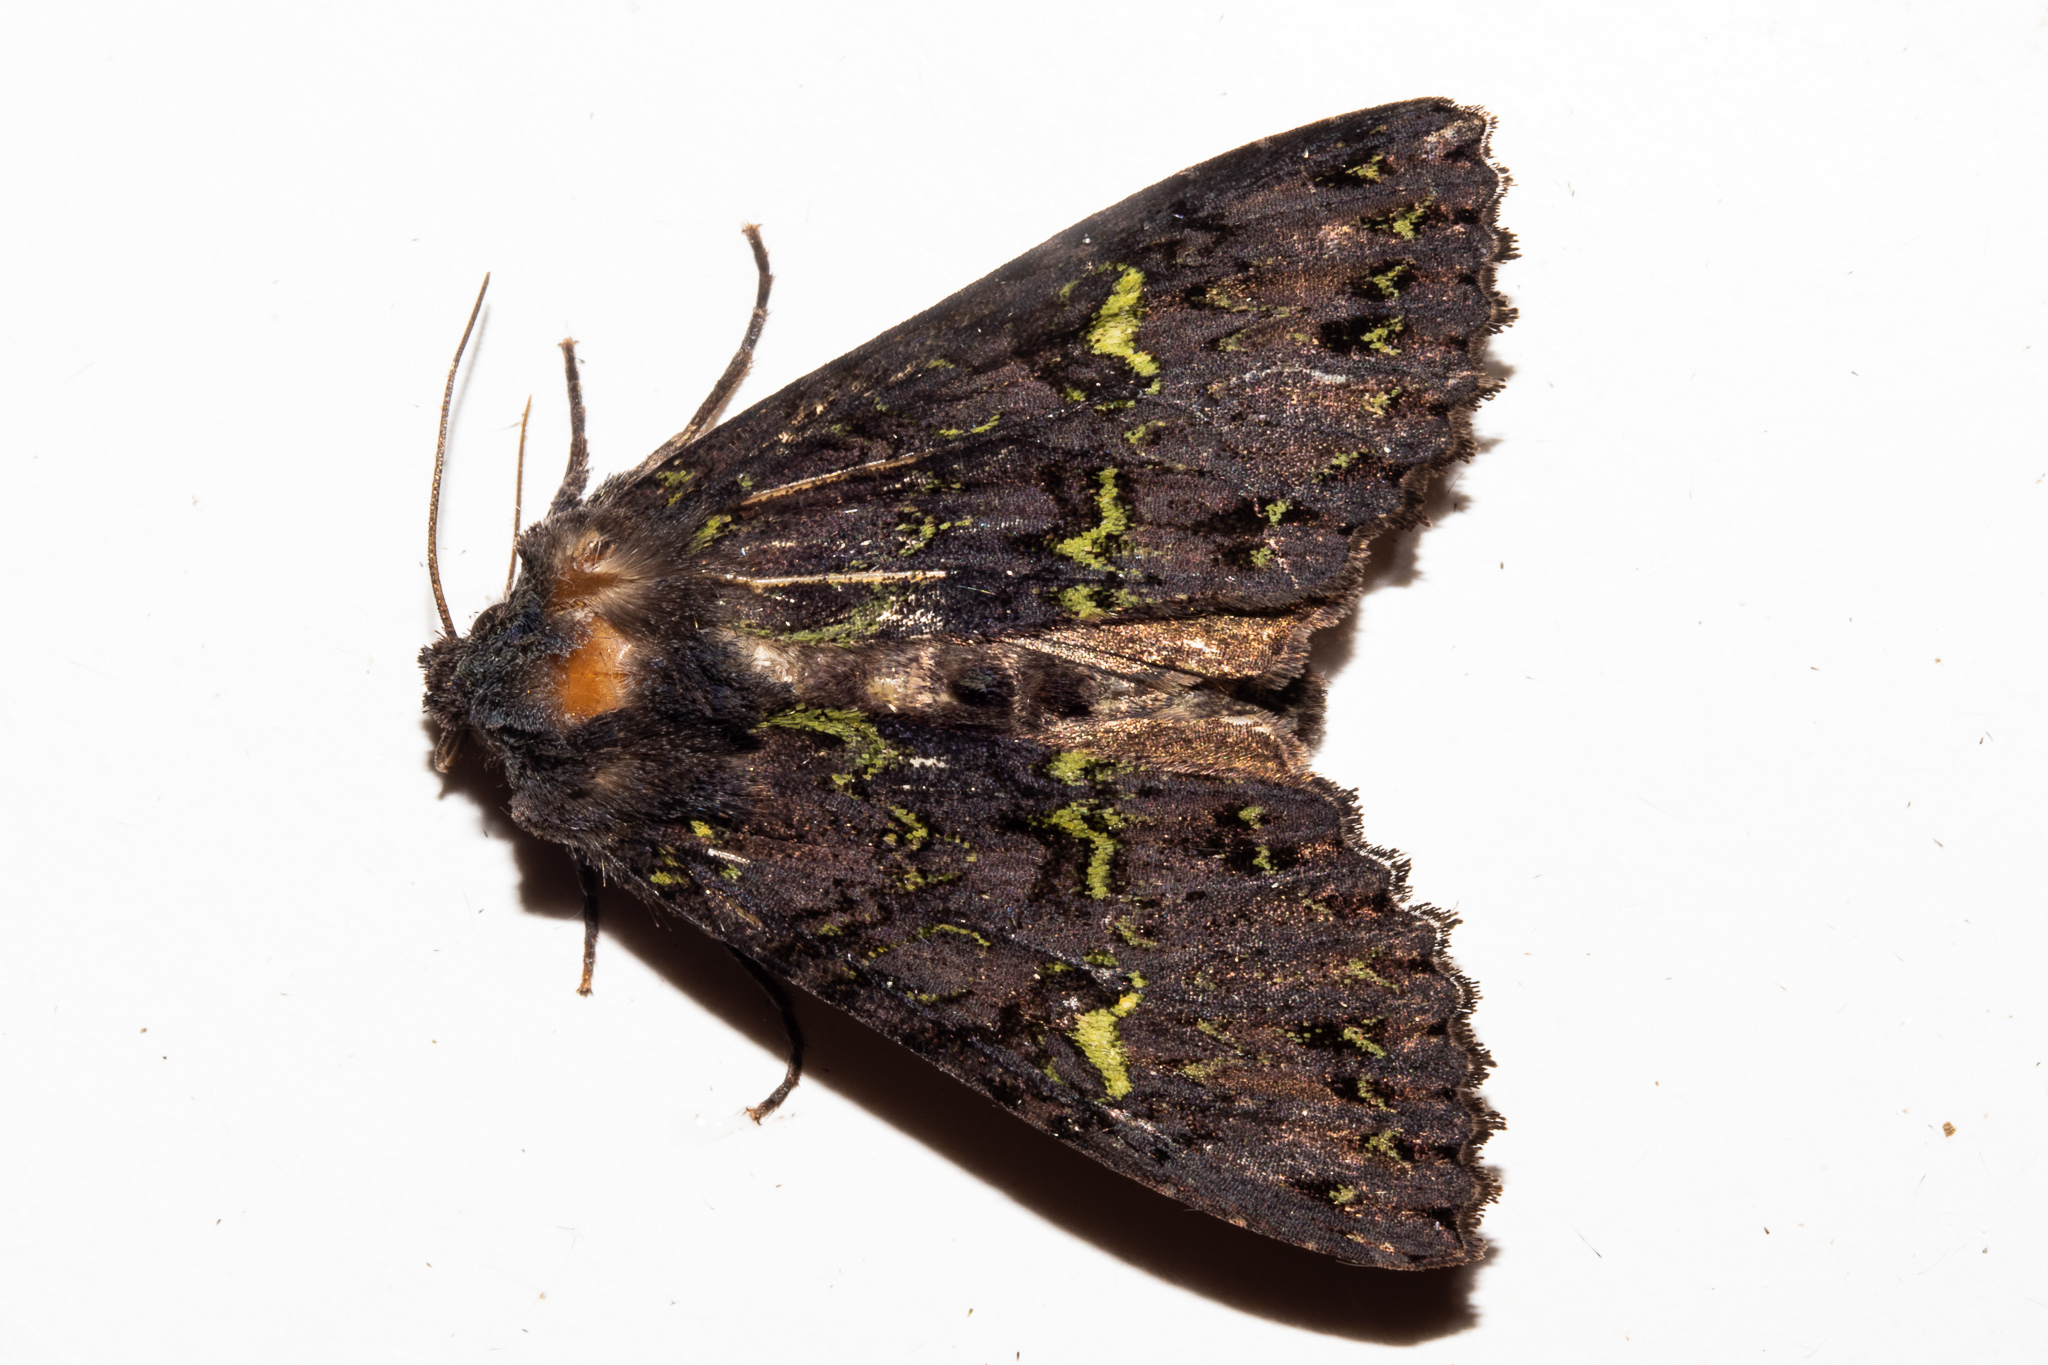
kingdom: Animalia
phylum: Arthropoda
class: Insecta
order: Lepidoptera
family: Noctuidae
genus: Meterana
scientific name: Meterana merope
